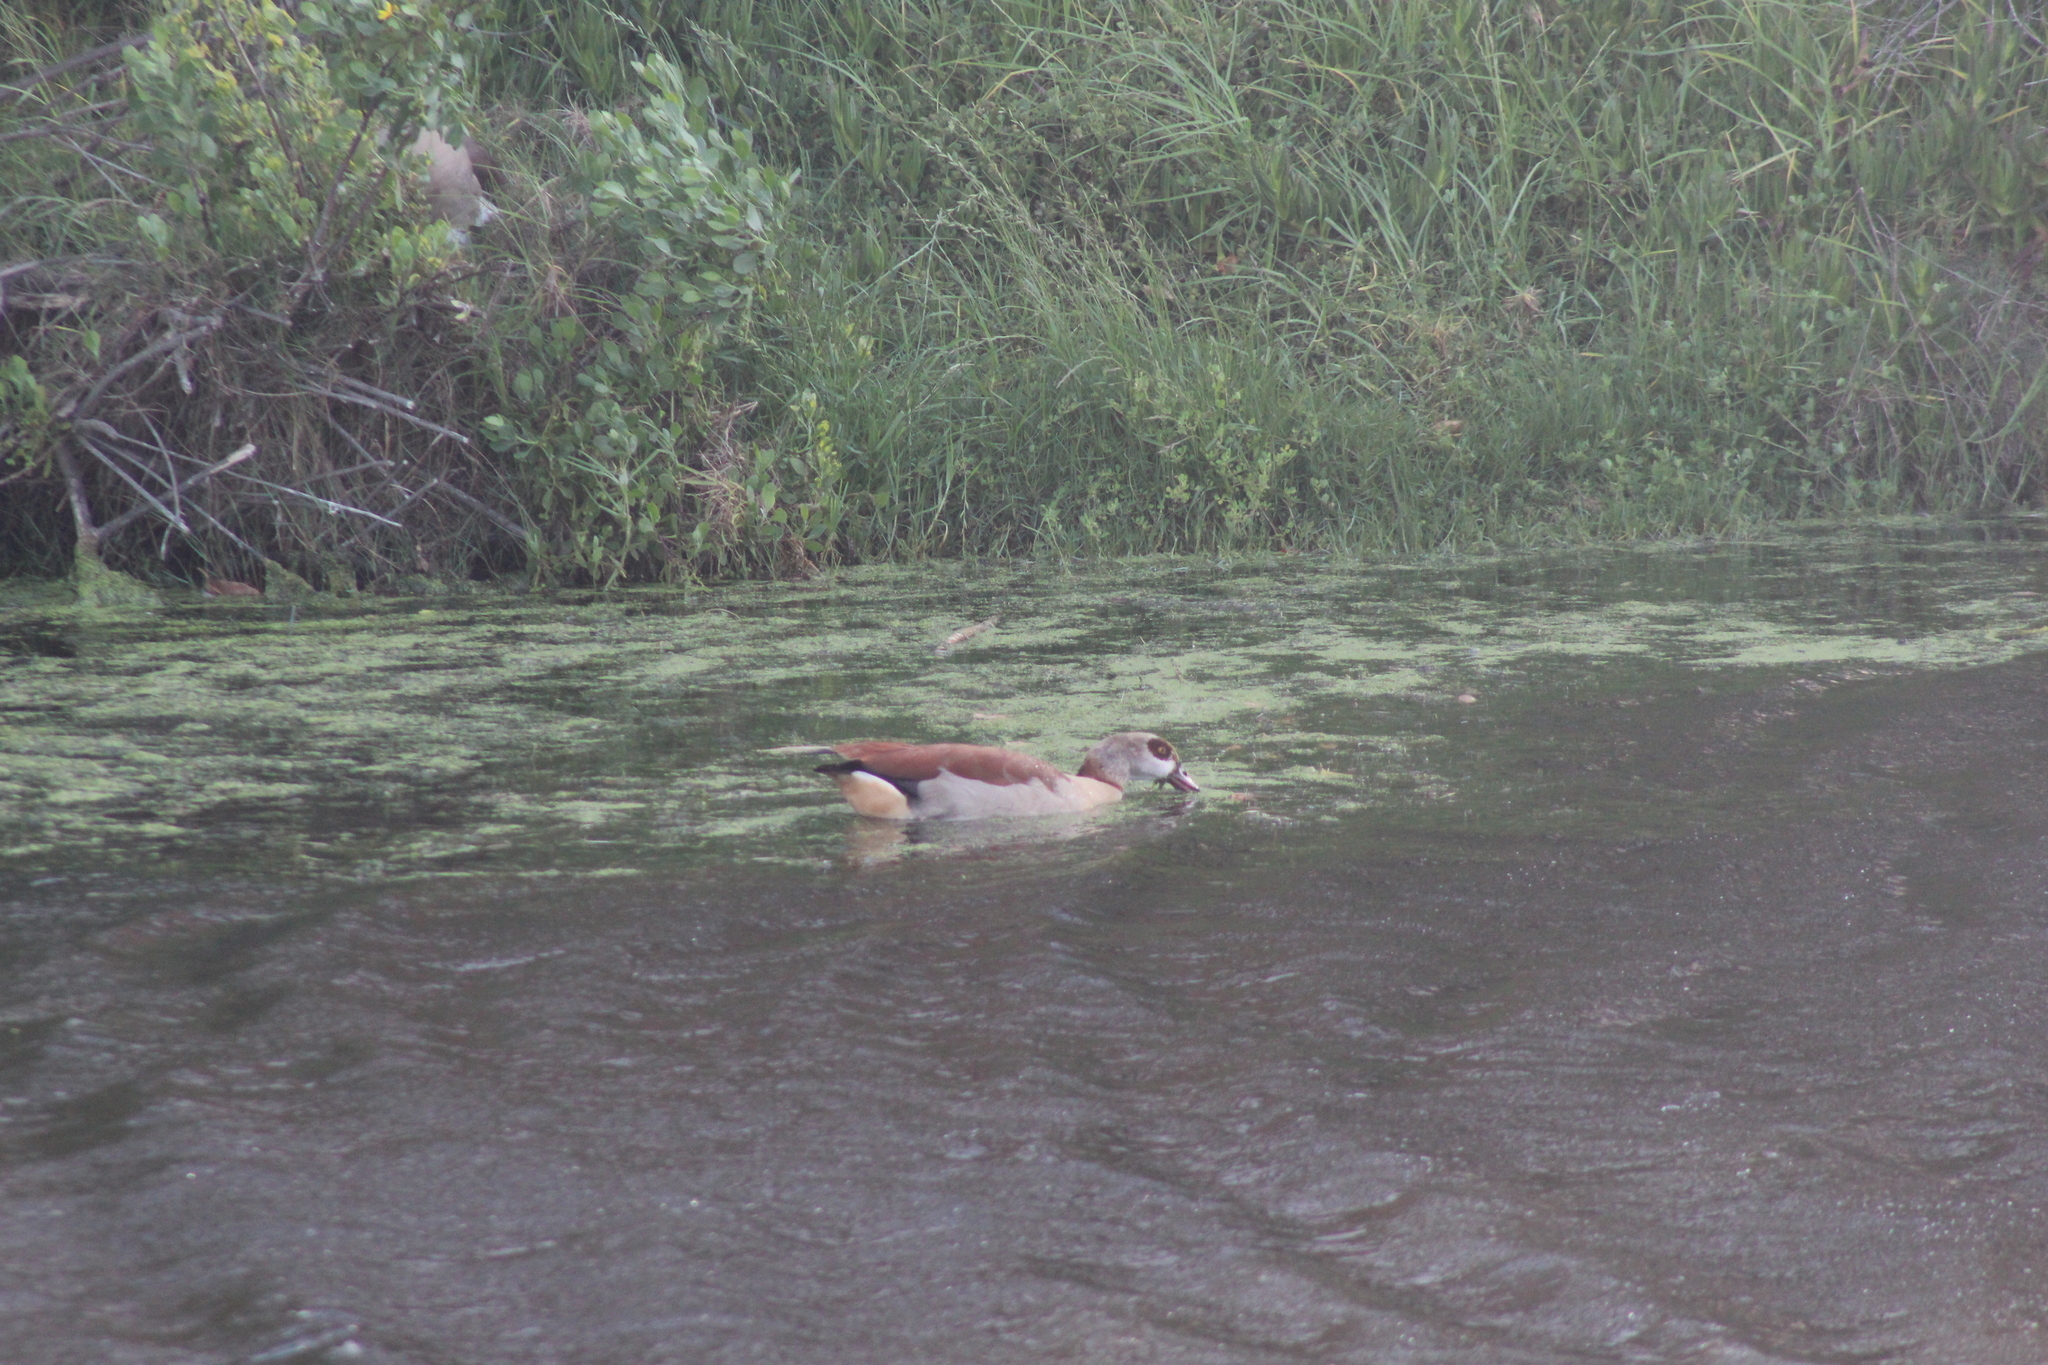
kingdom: Animalia
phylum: Chordata
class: Aves
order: Anseriformes
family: Anatidae
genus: Alopochen
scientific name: Alopochen aegyptiaca
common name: Egyptian goose
